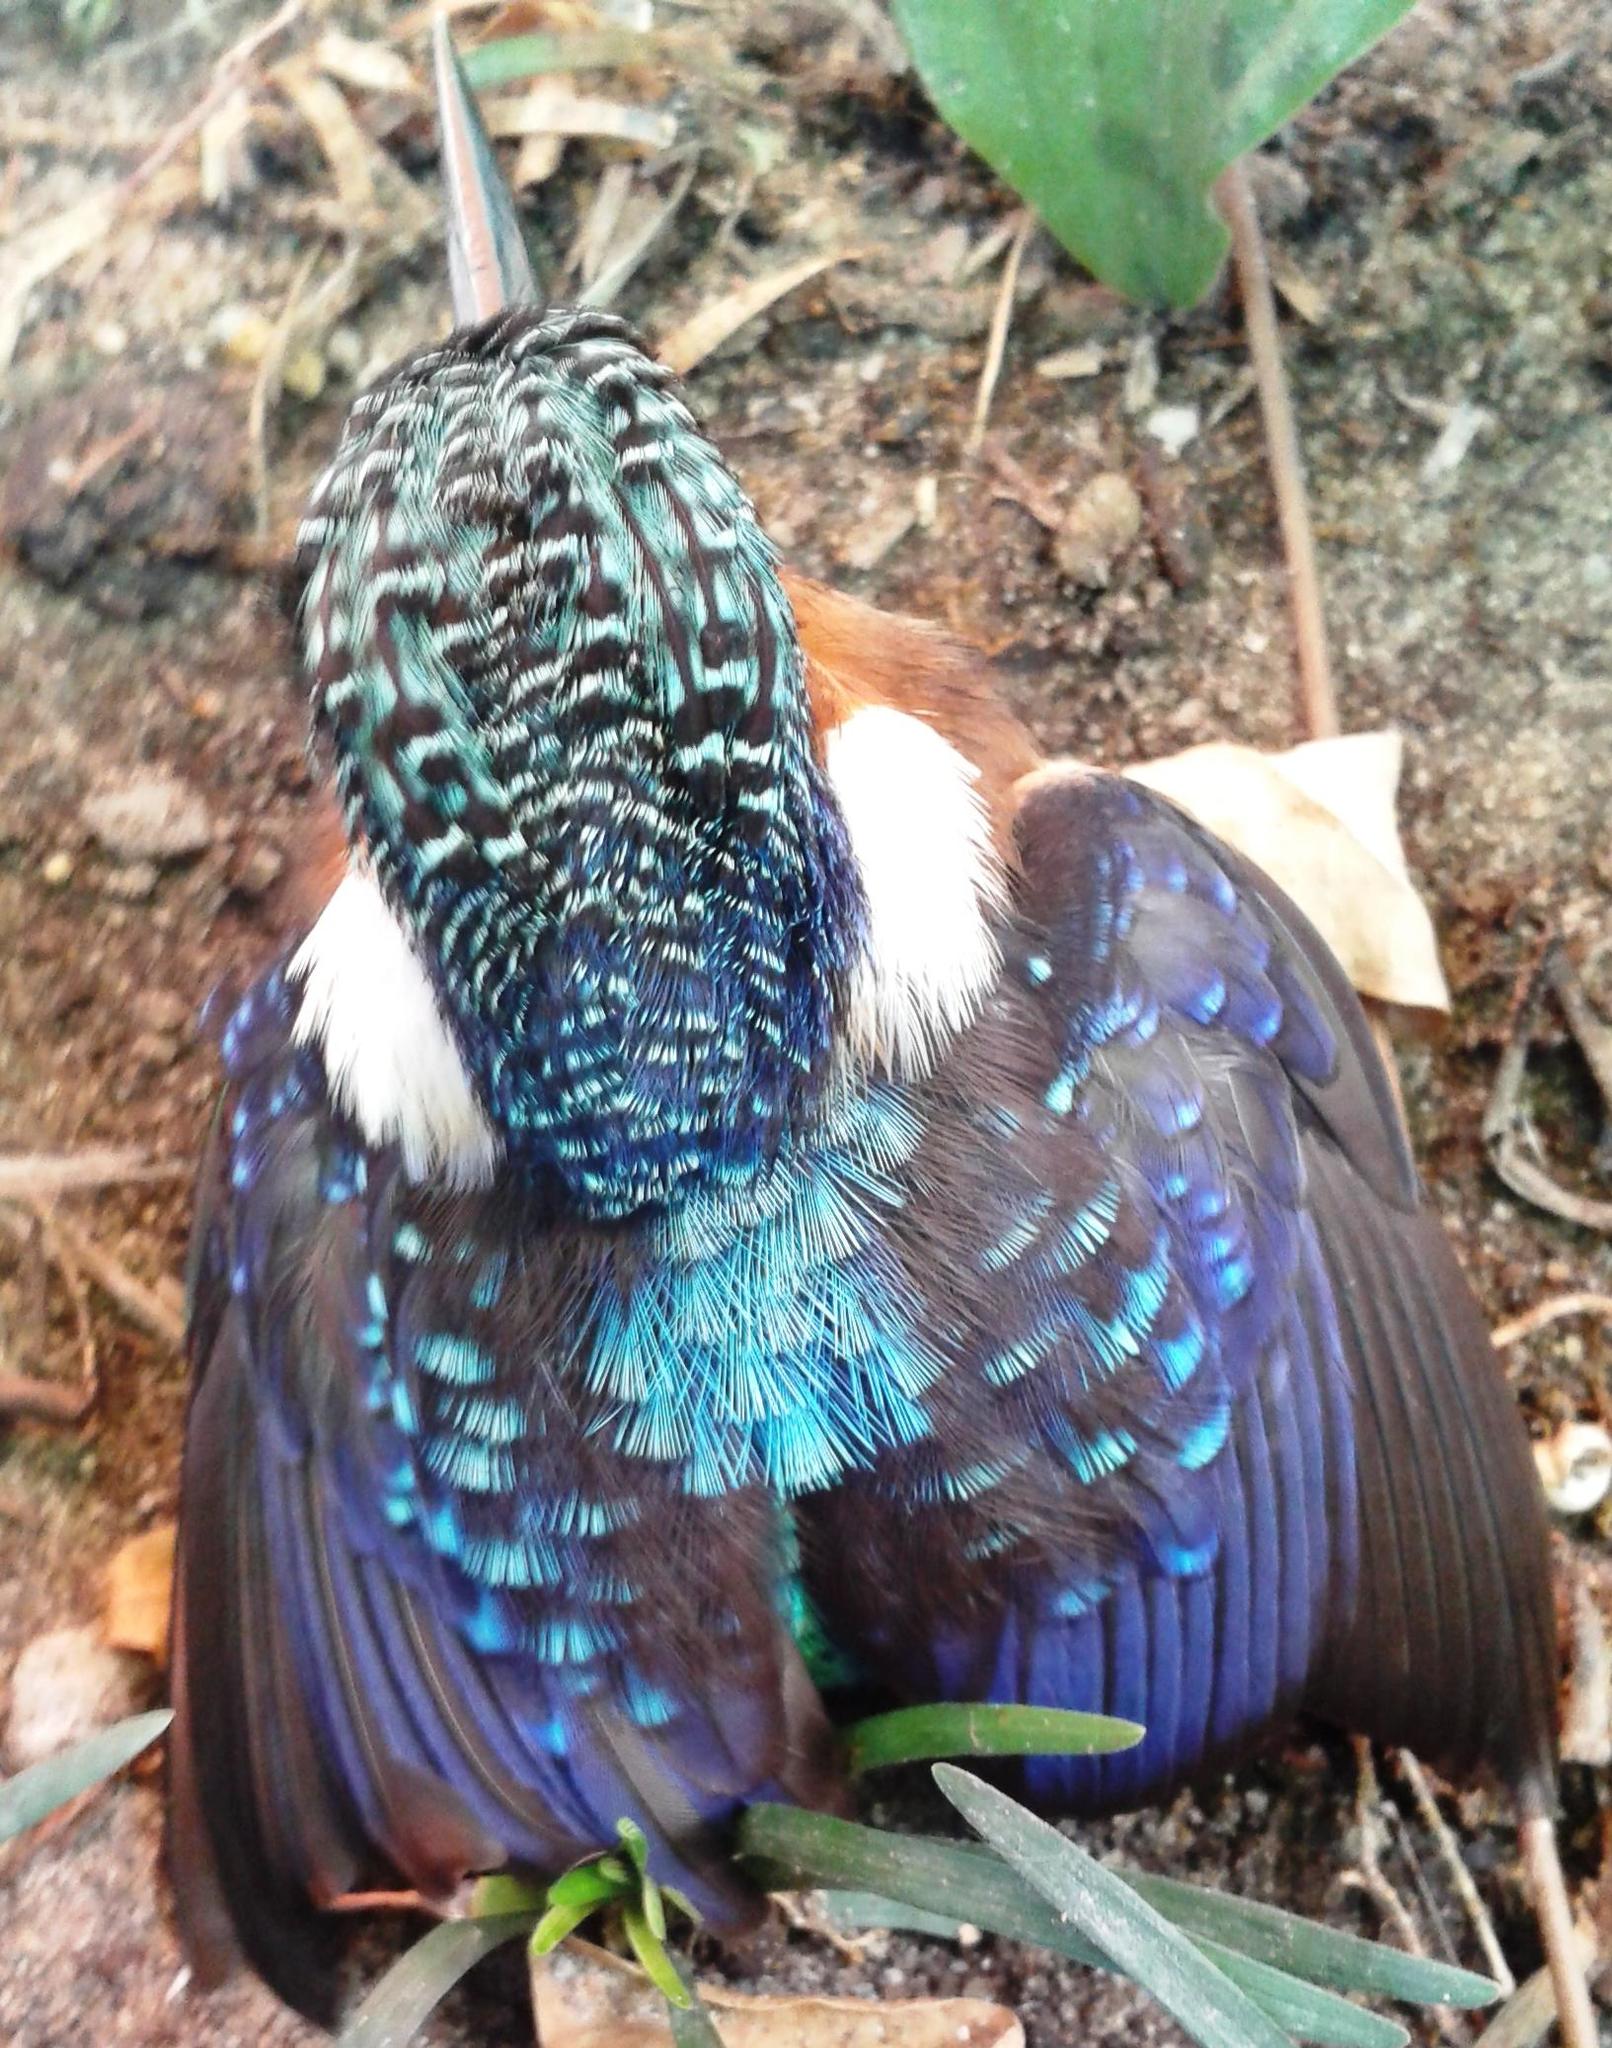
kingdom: Animalia
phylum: Chordata
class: Aves
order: Coraciiformes
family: Alcedinidae
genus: Corythornis
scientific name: Corythornis cristatus
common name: Malachite kingfisher
